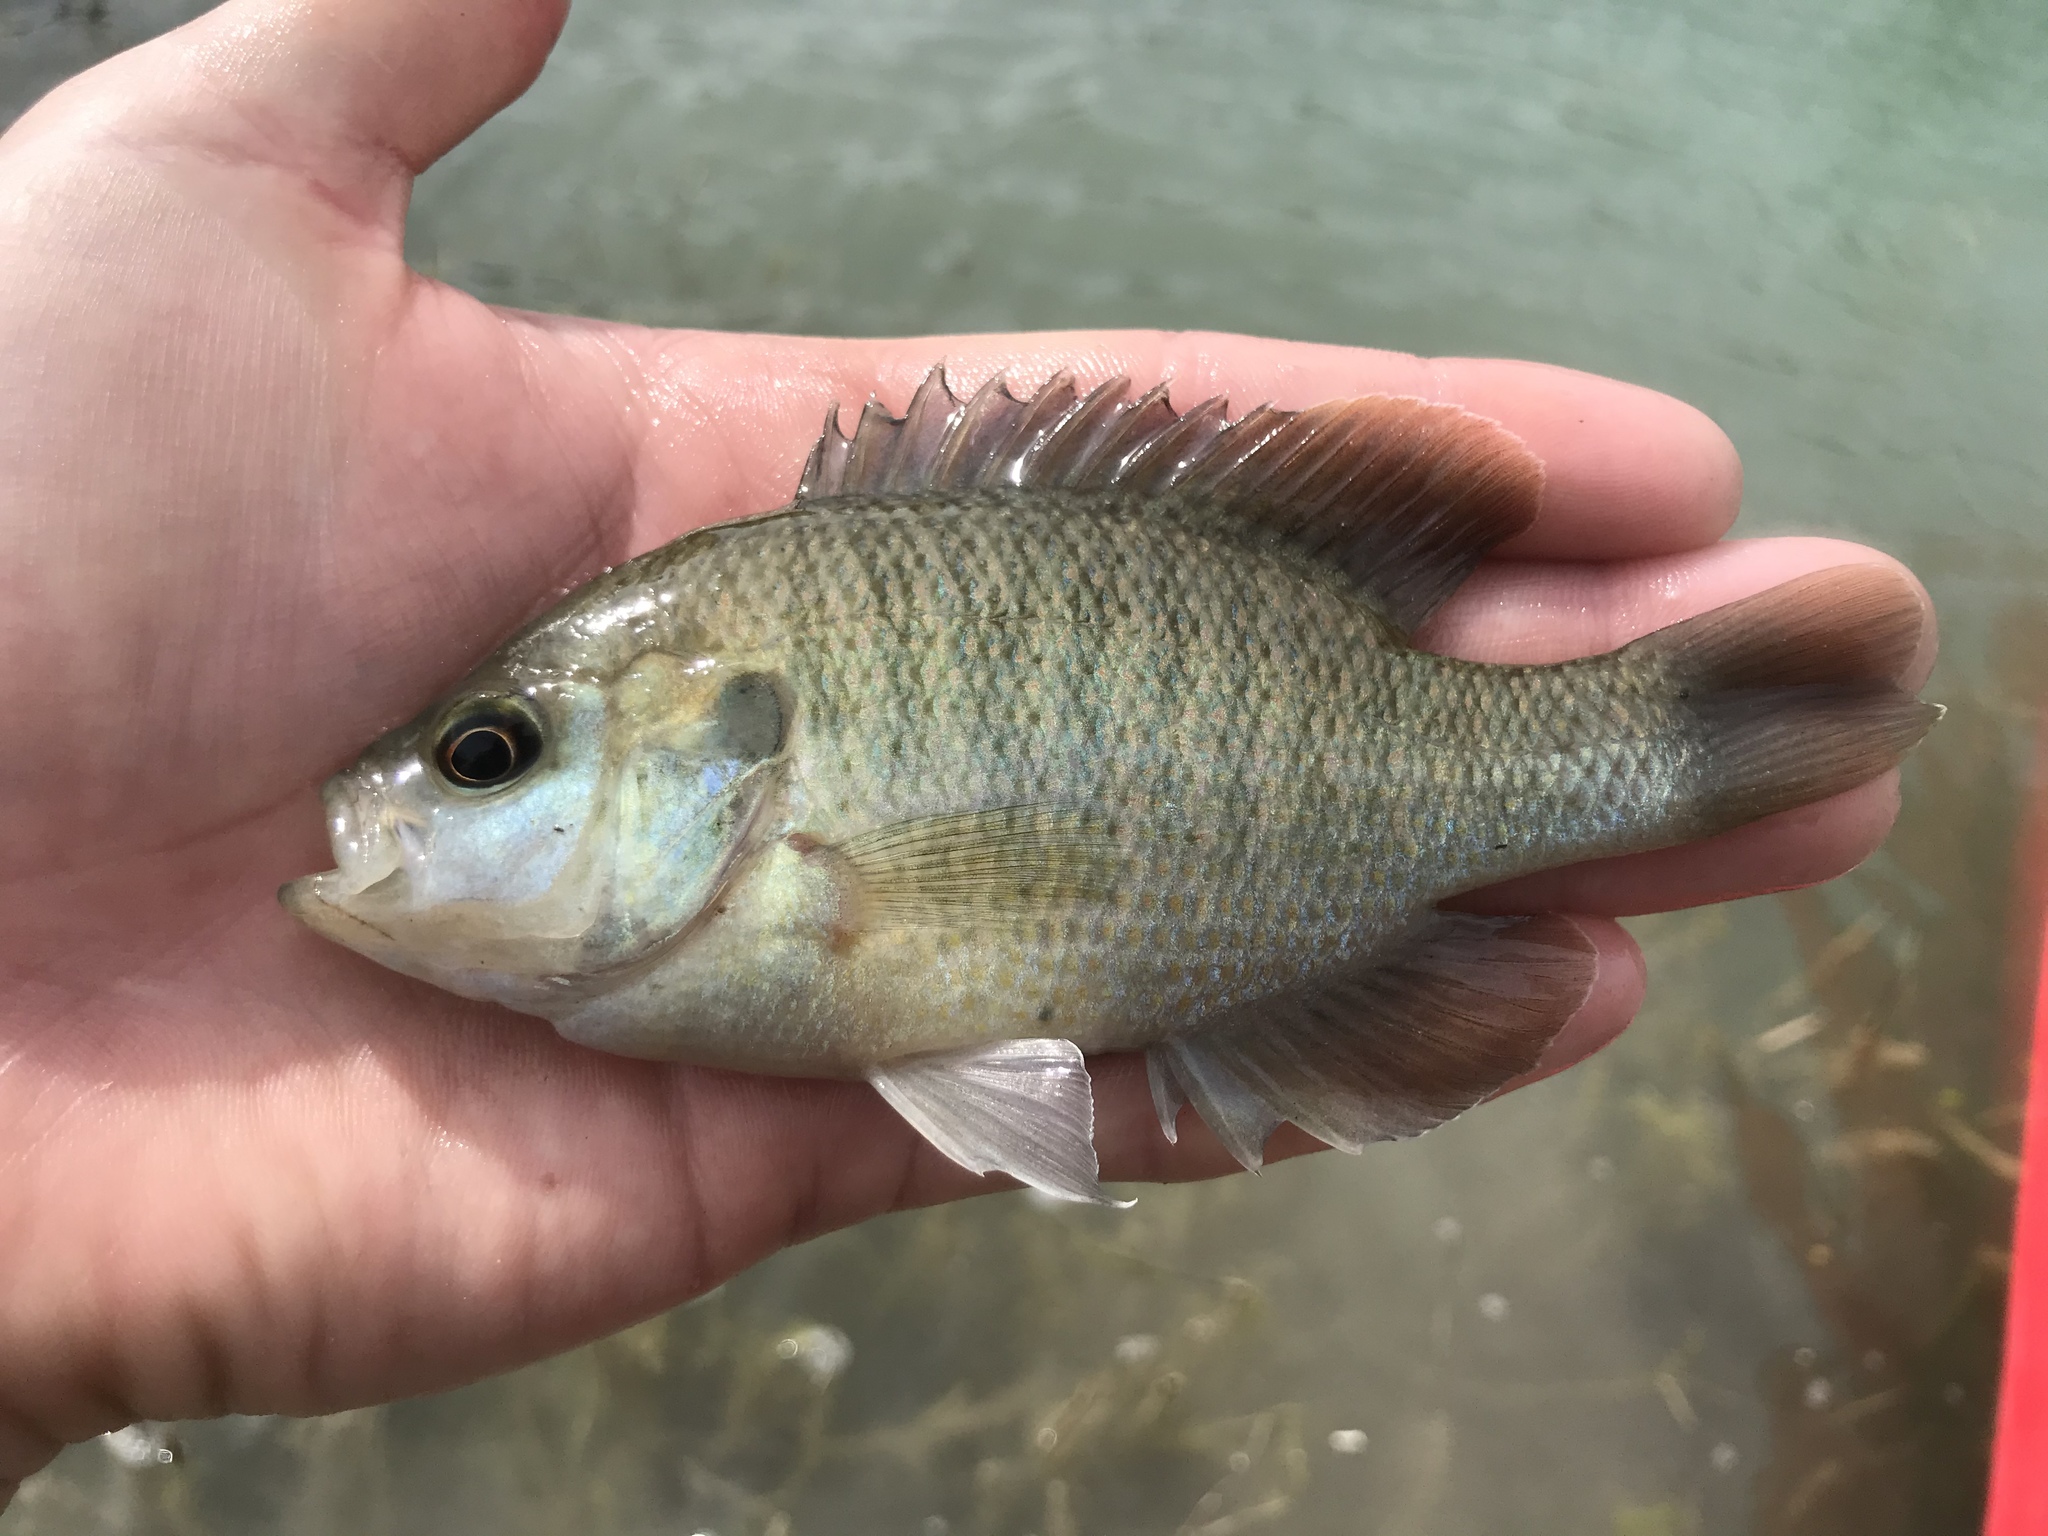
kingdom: Animalia
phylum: Chordata
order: Perciformes
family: Centrarchidae
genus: Lepomis
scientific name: Lepomis miniatus
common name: Redspotted sunfish
